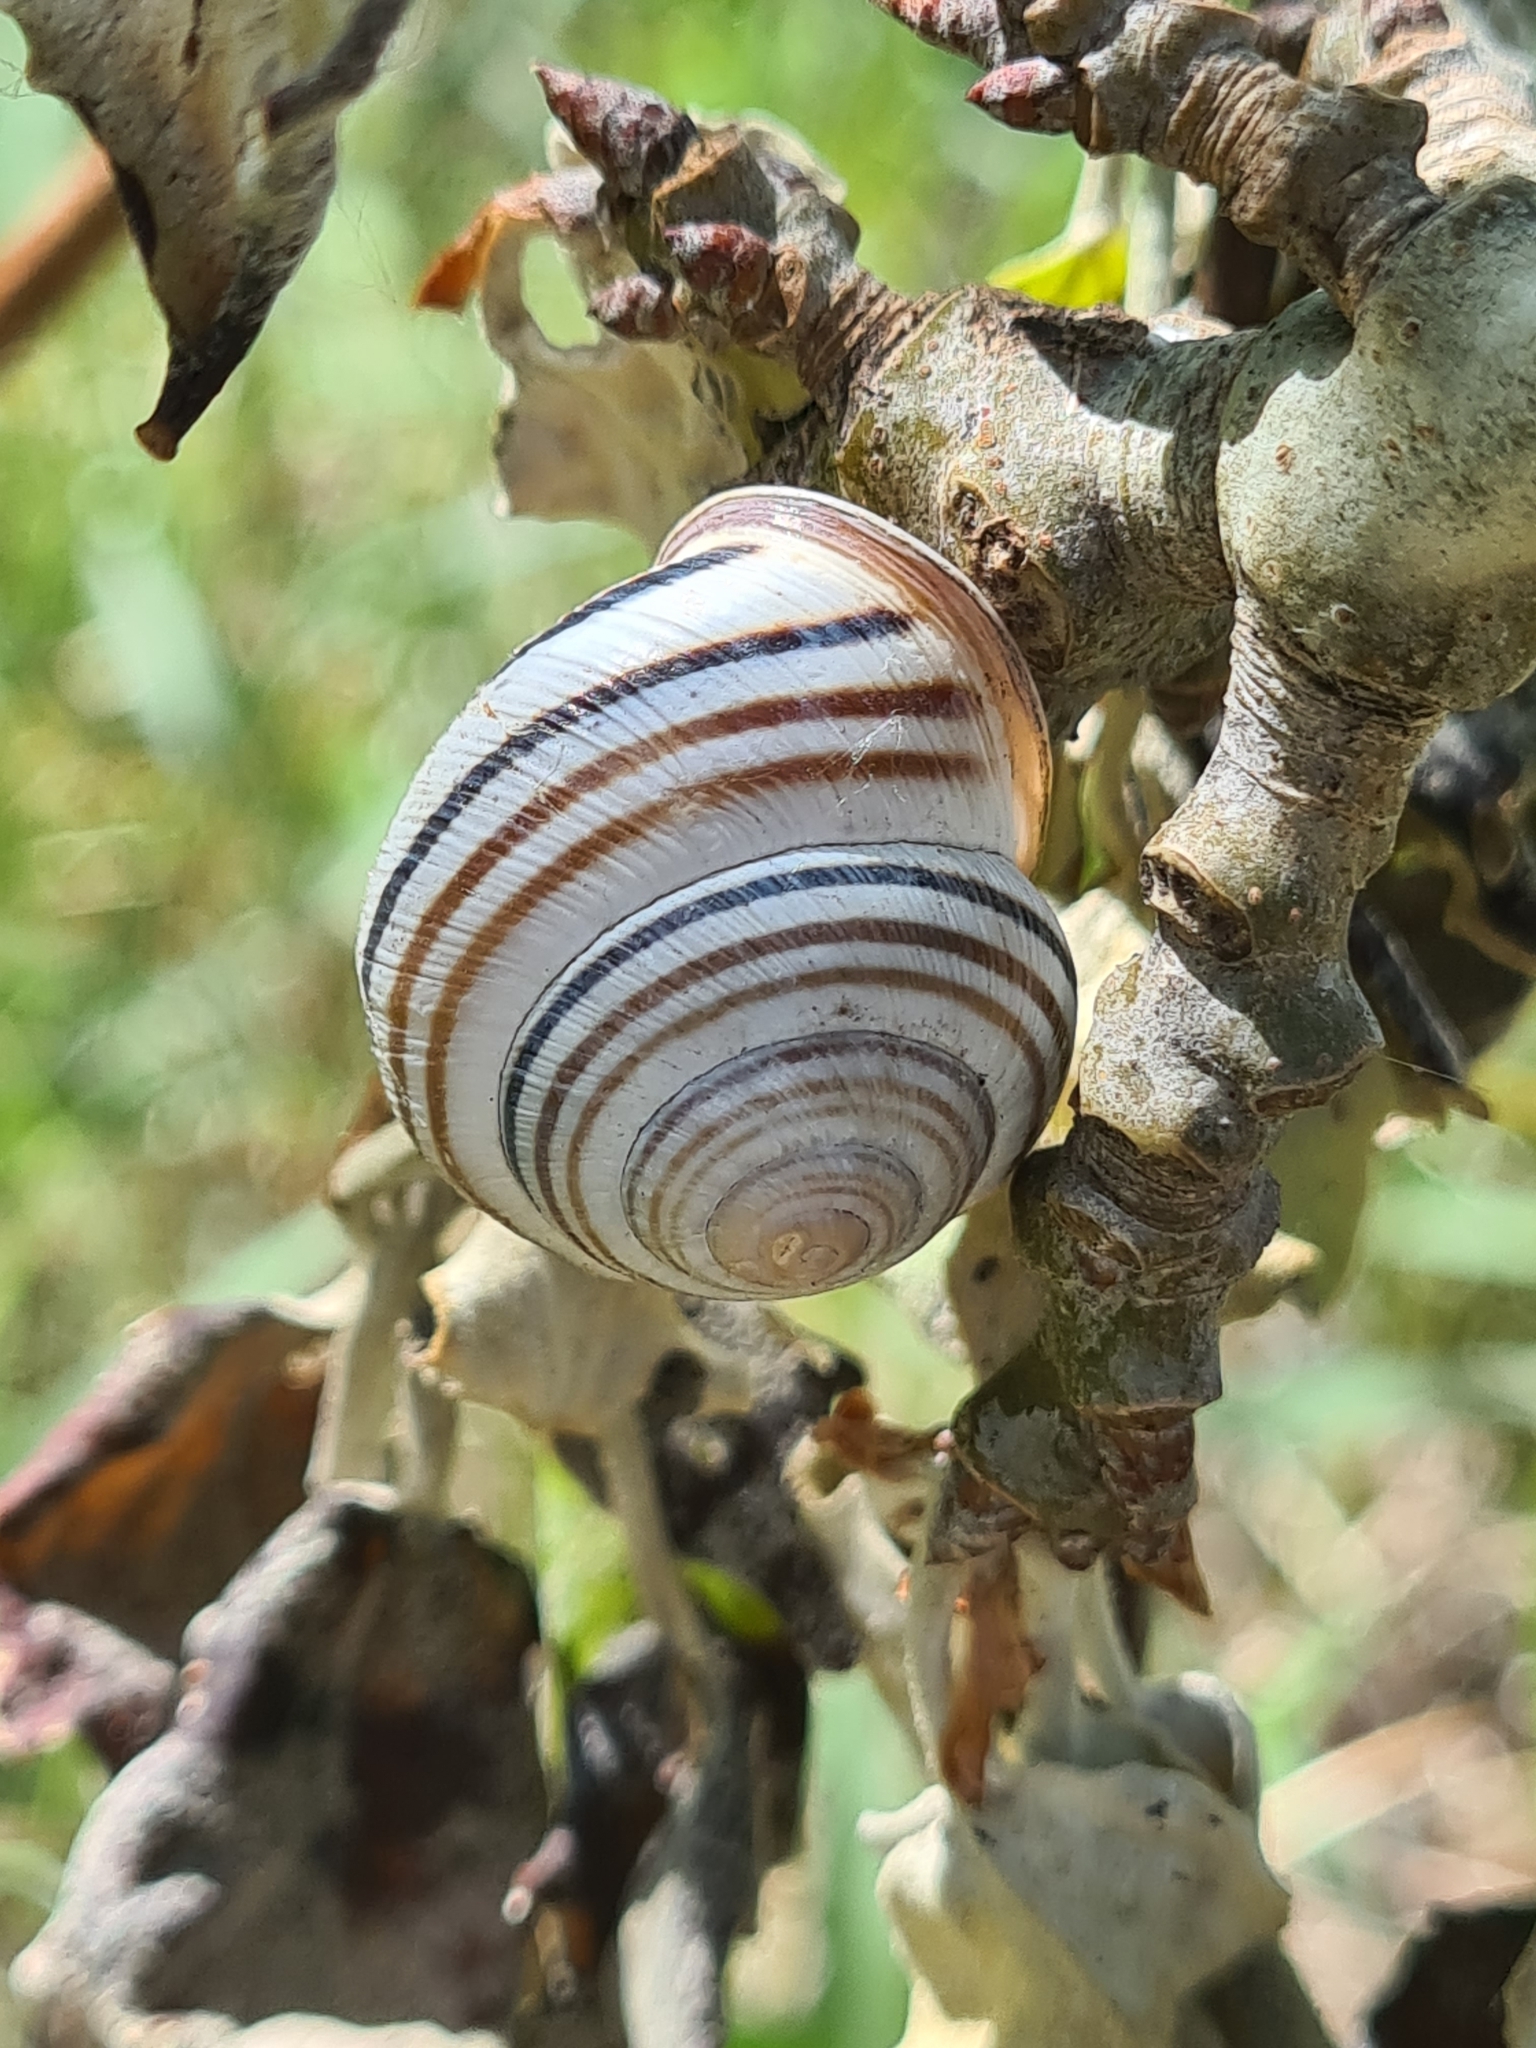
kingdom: Animalia
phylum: Mollusca
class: Gastropoda
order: Stylommatophora
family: Helicidae
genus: Caucasotachea
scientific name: Caucasotachea vindobonensis
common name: European helicid land snail
